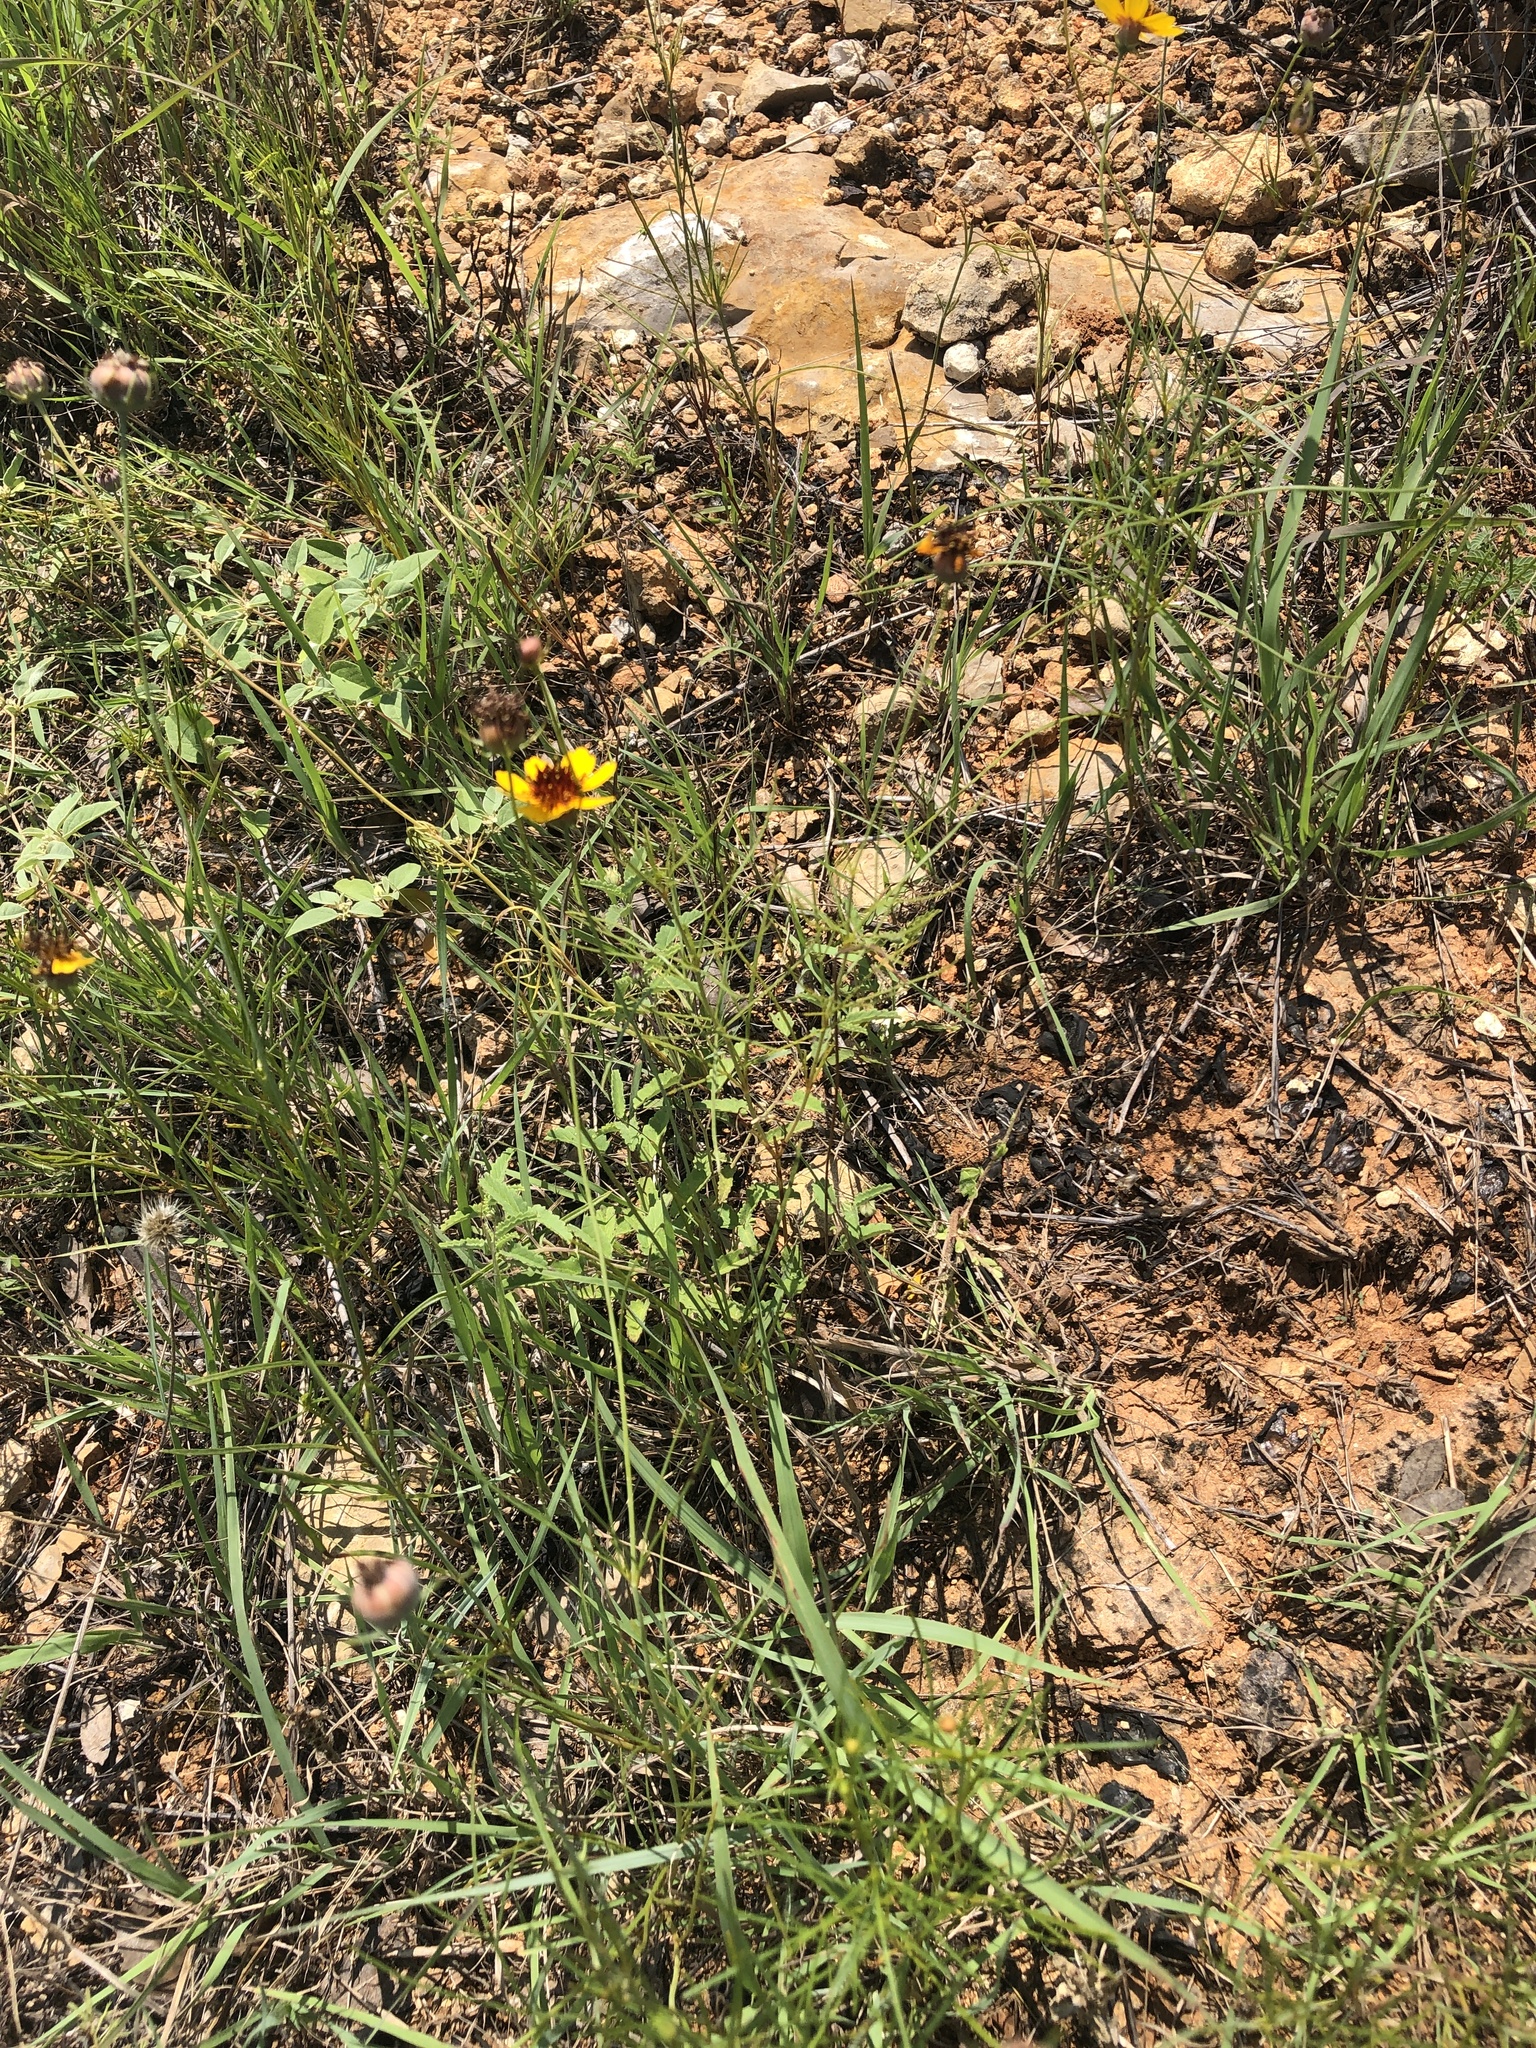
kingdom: Plantae
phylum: Tracheophyta
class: Magnoliopsida
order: Asterales
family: Asteraceae
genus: Thelesperma
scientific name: Thelesperma filifolium
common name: Stiff greenthread
